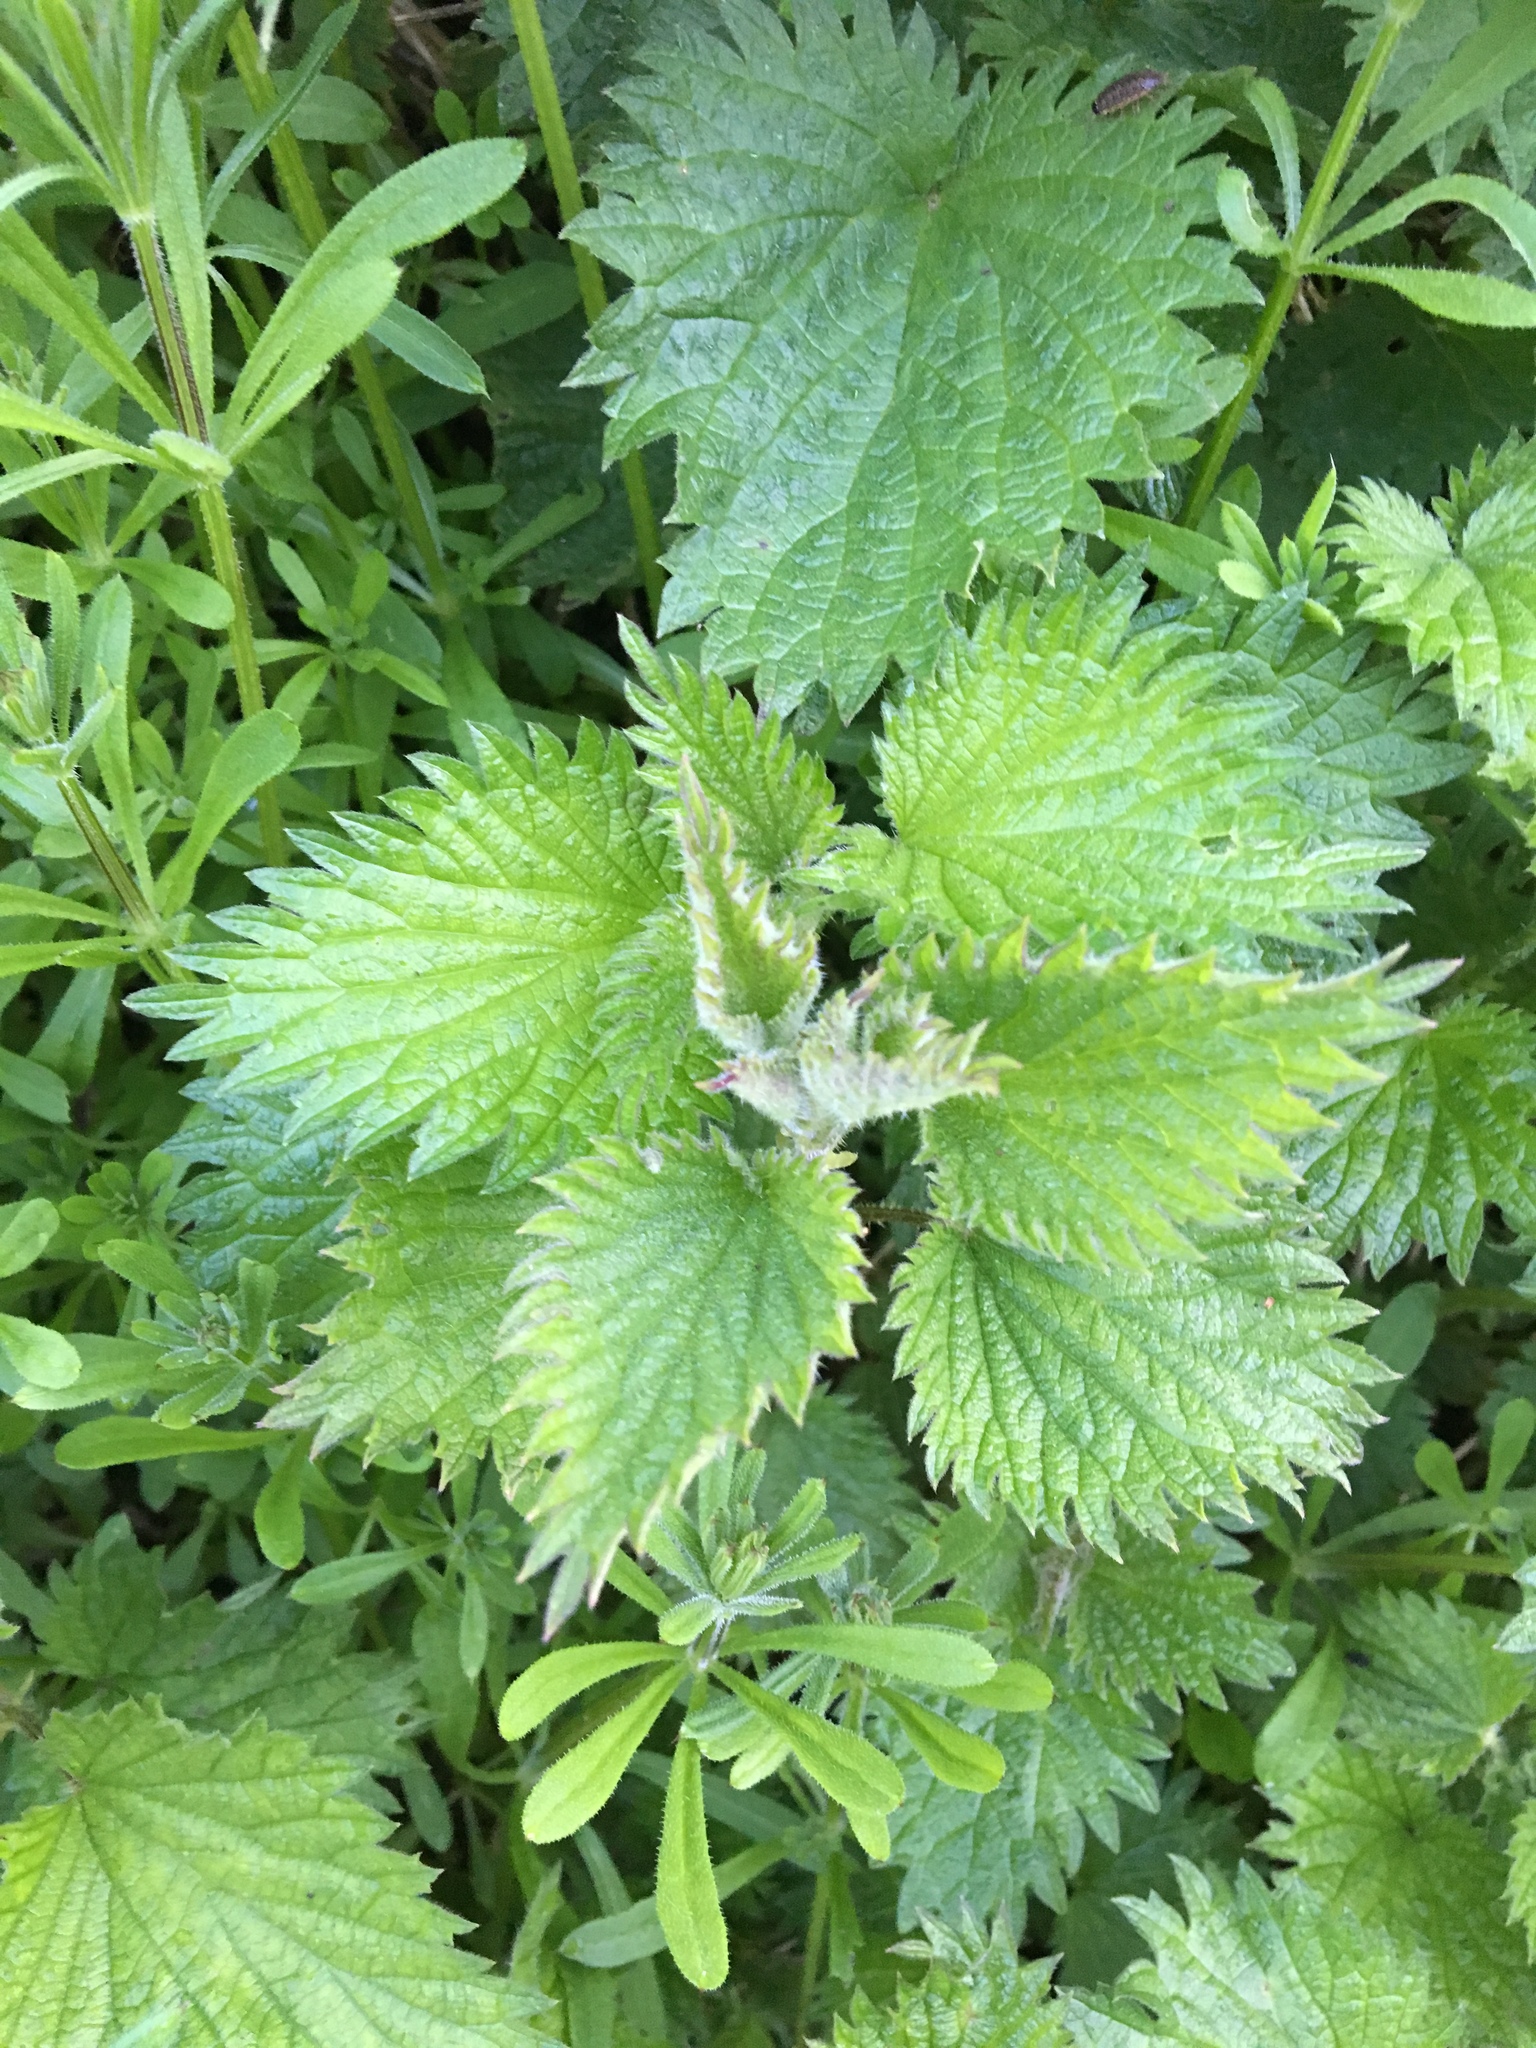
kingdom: Plantae
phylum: Tracheophyta
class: Magnoliopsida
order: Rosales
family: Urticaceae
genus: Urtica
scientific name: Urtica dioica
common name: Common nettle
